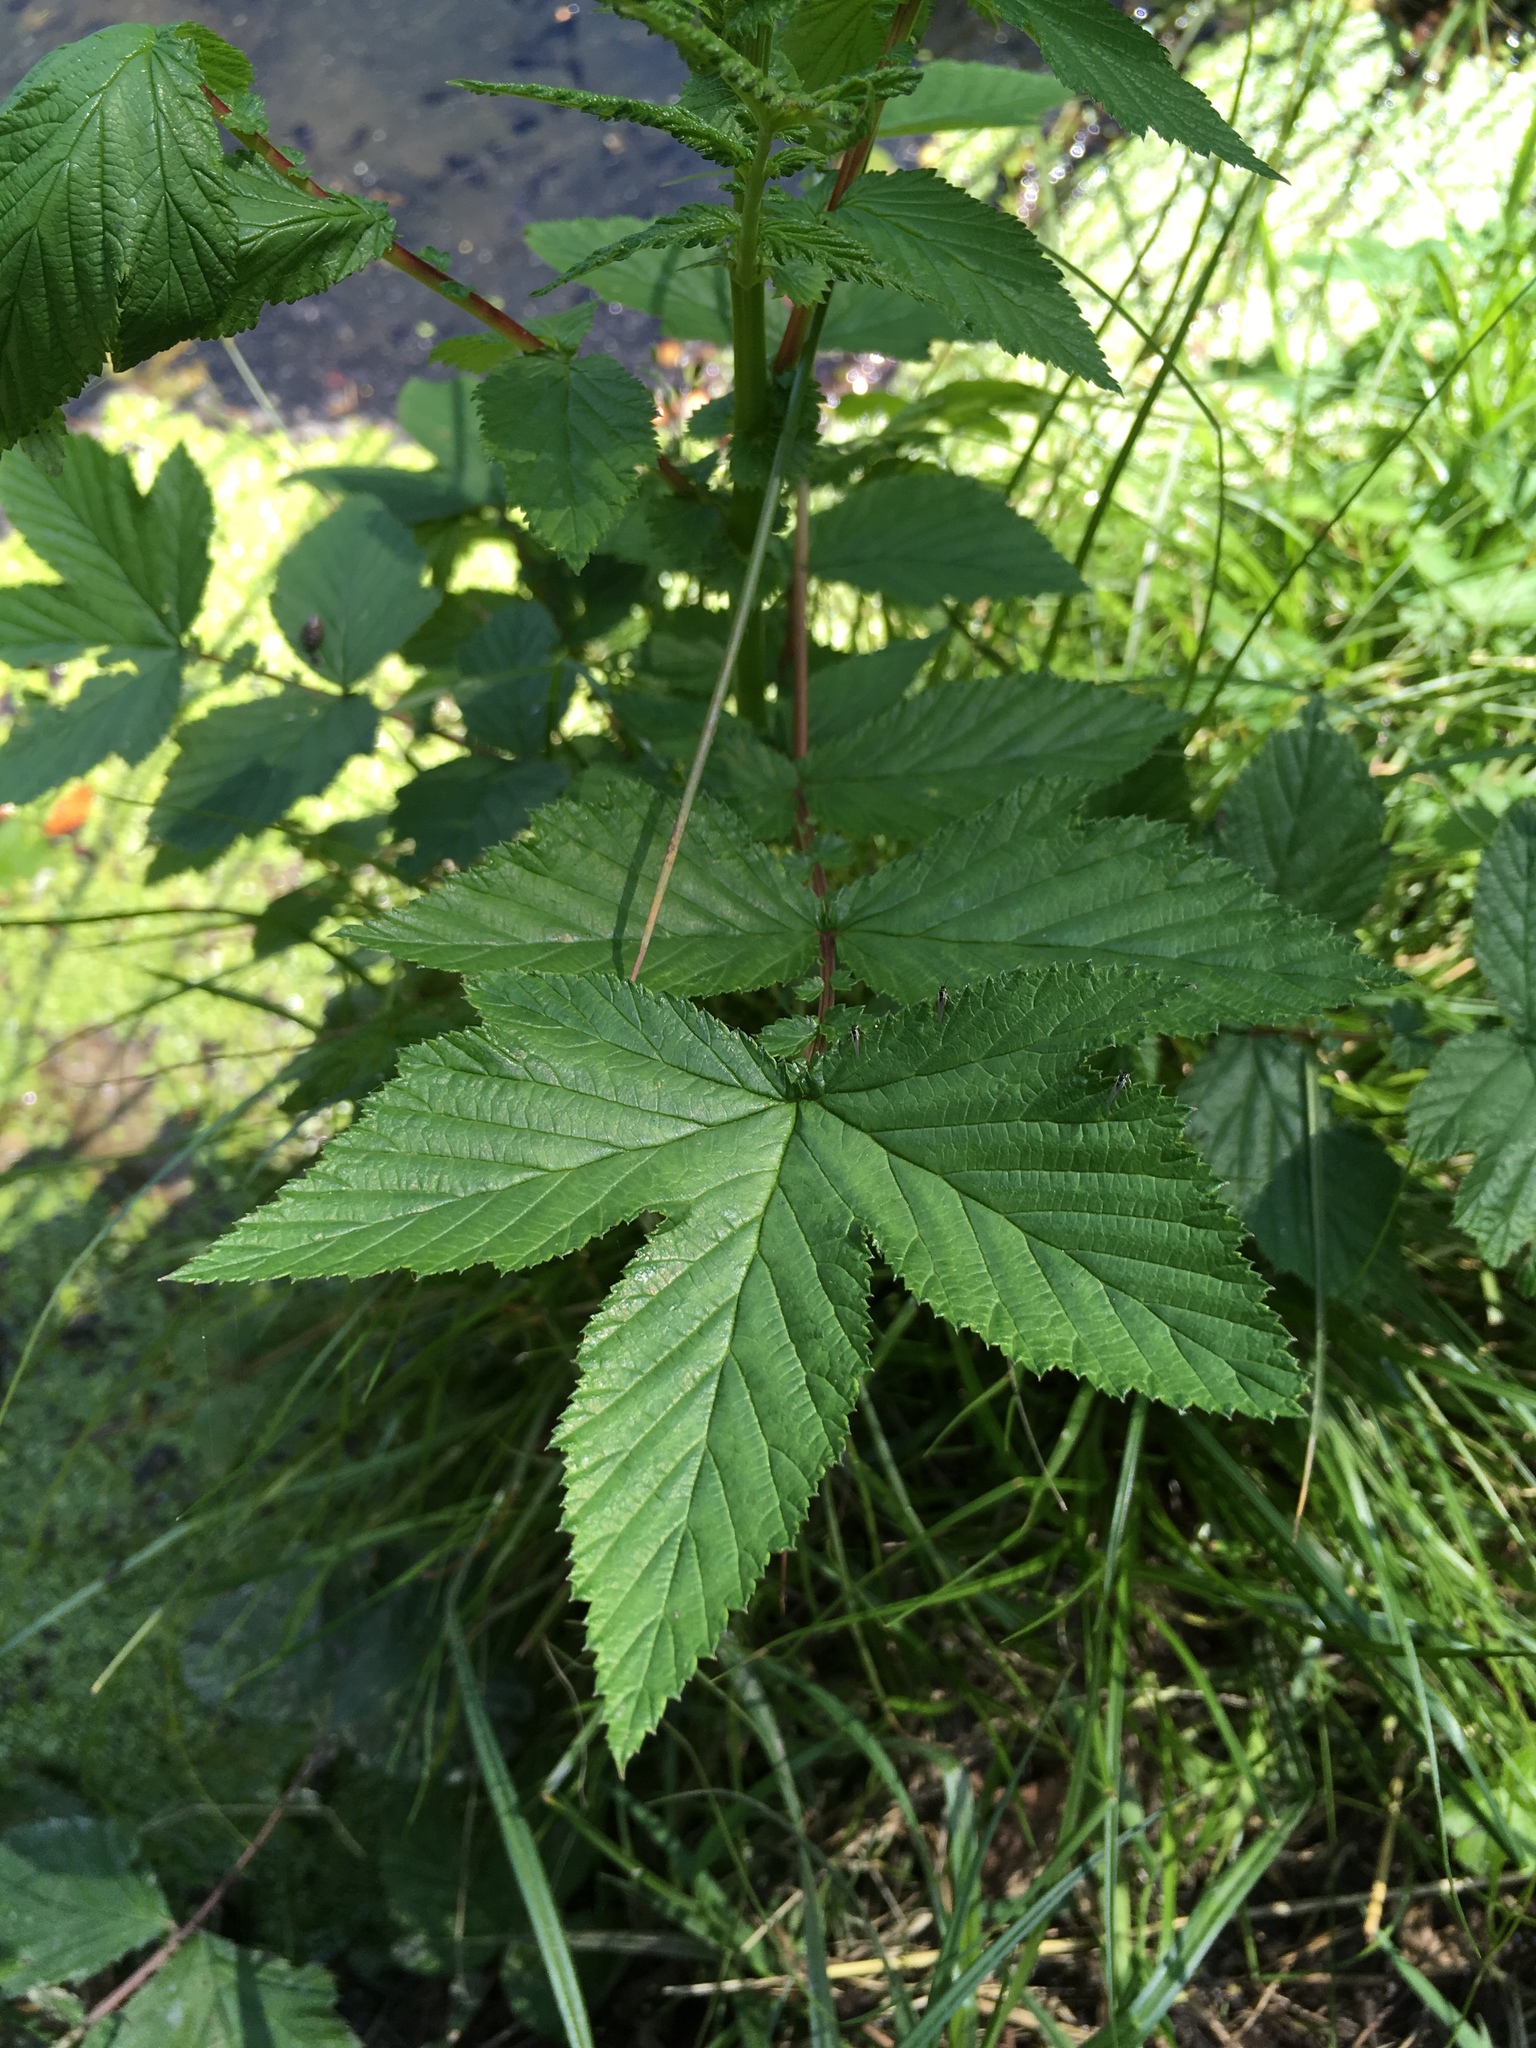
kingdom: Plantae
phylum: Tracheophyta
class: Magnoliopsida
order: Rosales
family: Rosaceae
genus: Filipendula
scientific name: Filipendula ulmaria
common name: Meadowsweet
